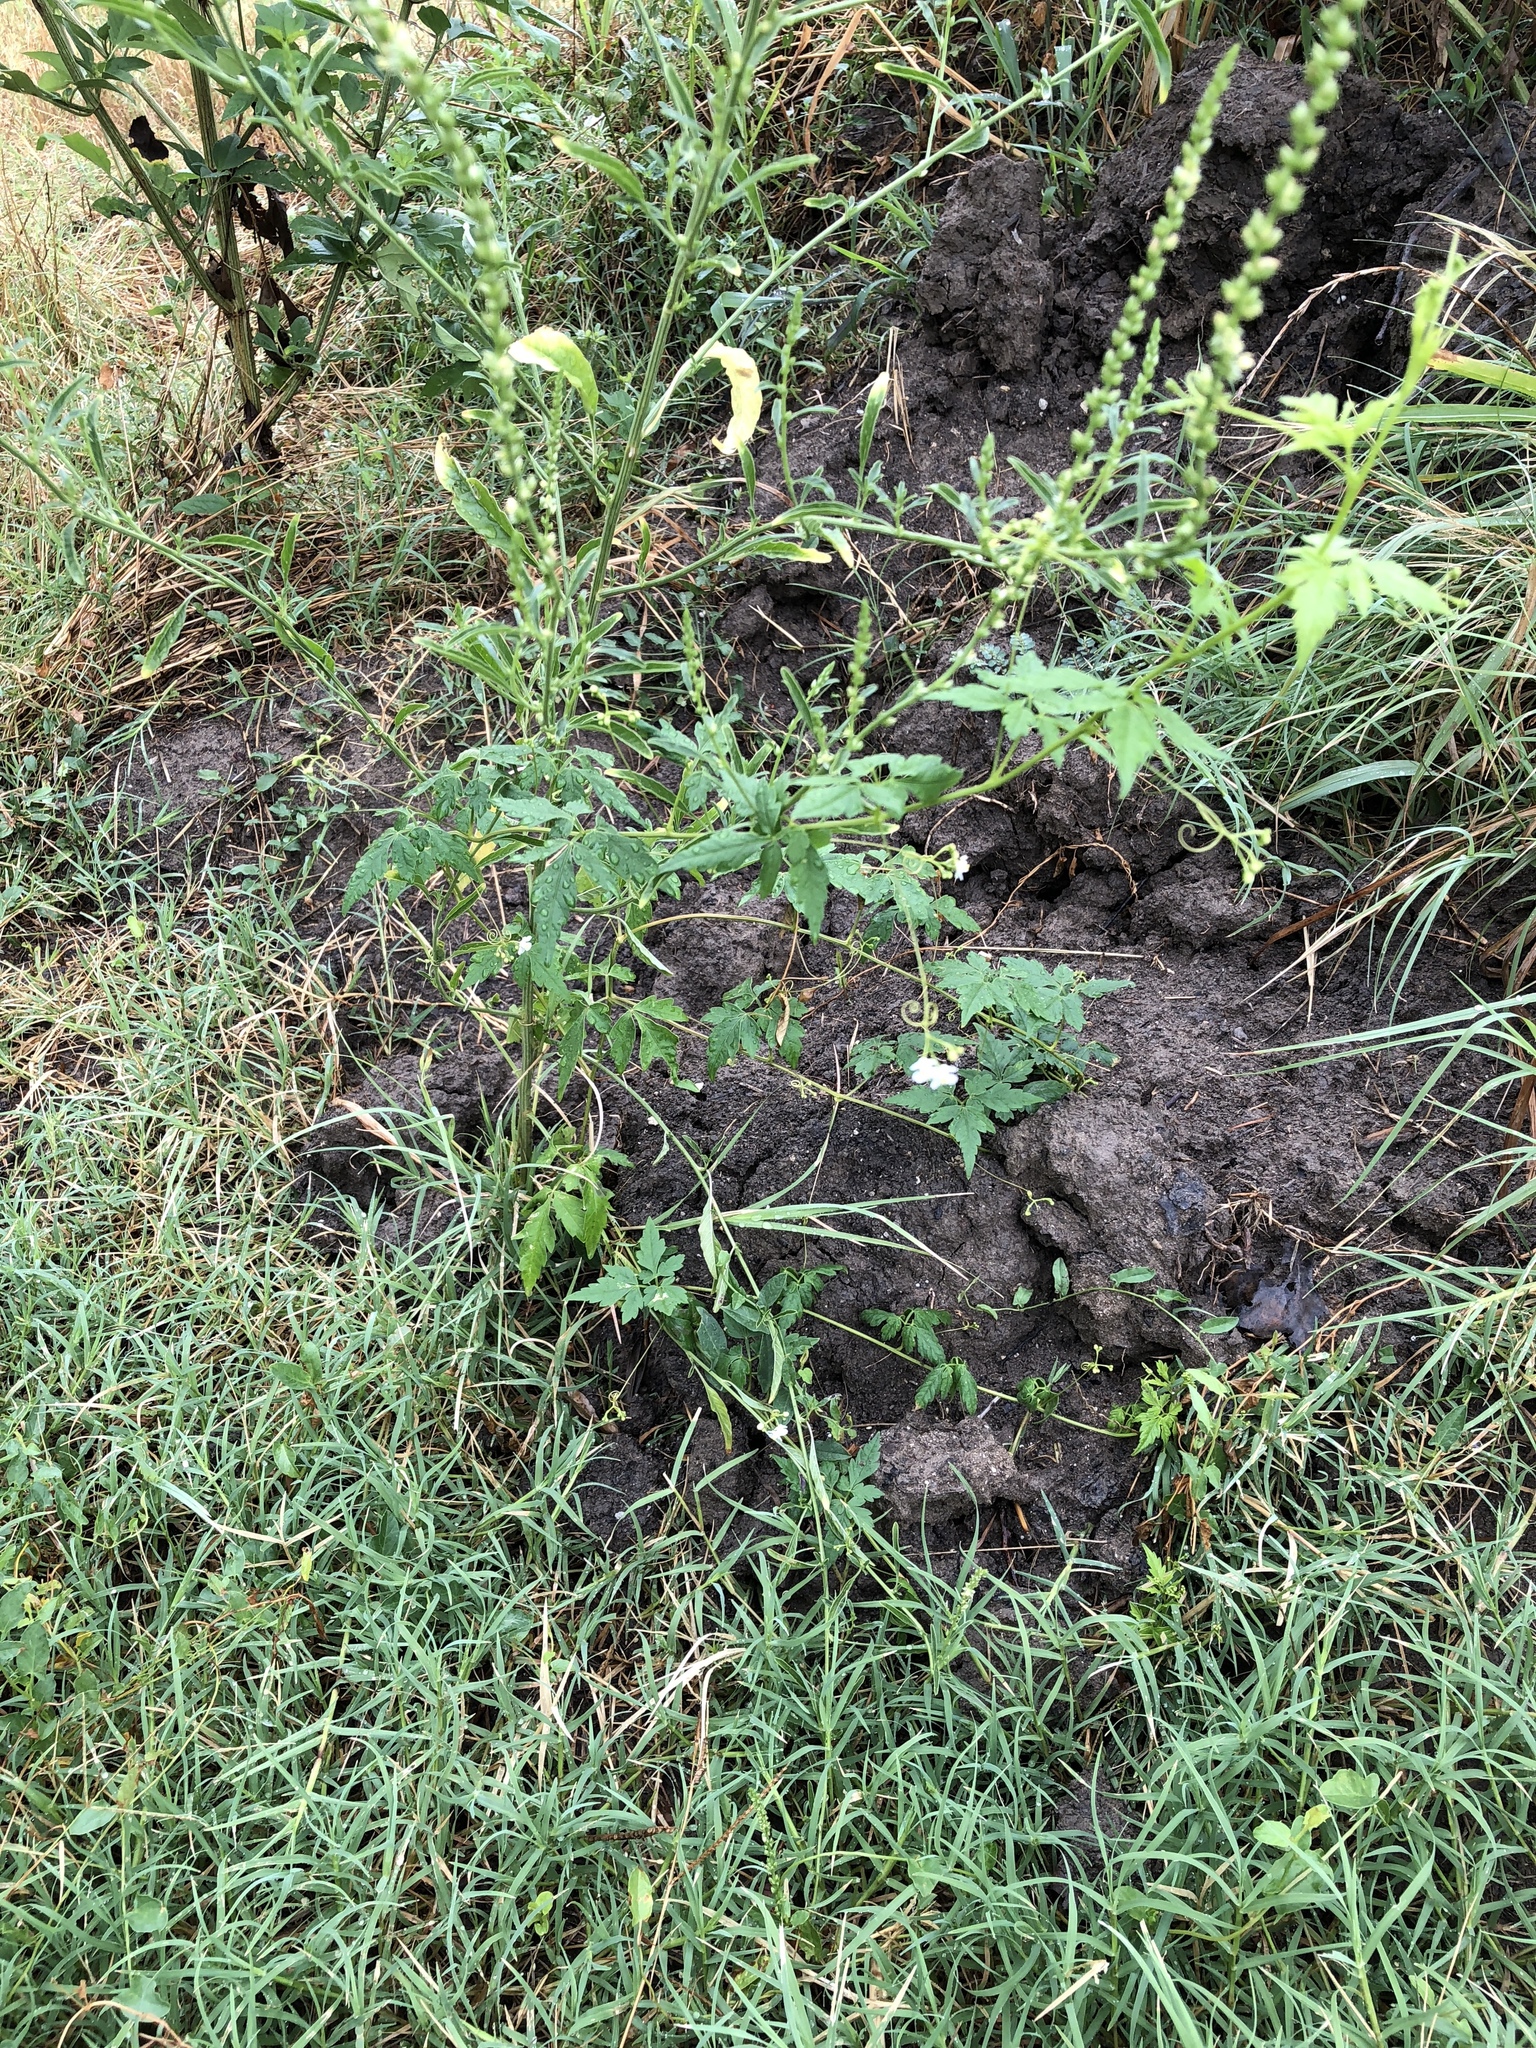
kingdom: Plantae
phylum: Tracheophyta
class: Magnoliopsida
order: Sapindales
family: Sapindaceae
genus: Cardiospermum
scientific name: Cardiospermum halicacabum
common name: Balloon vine
